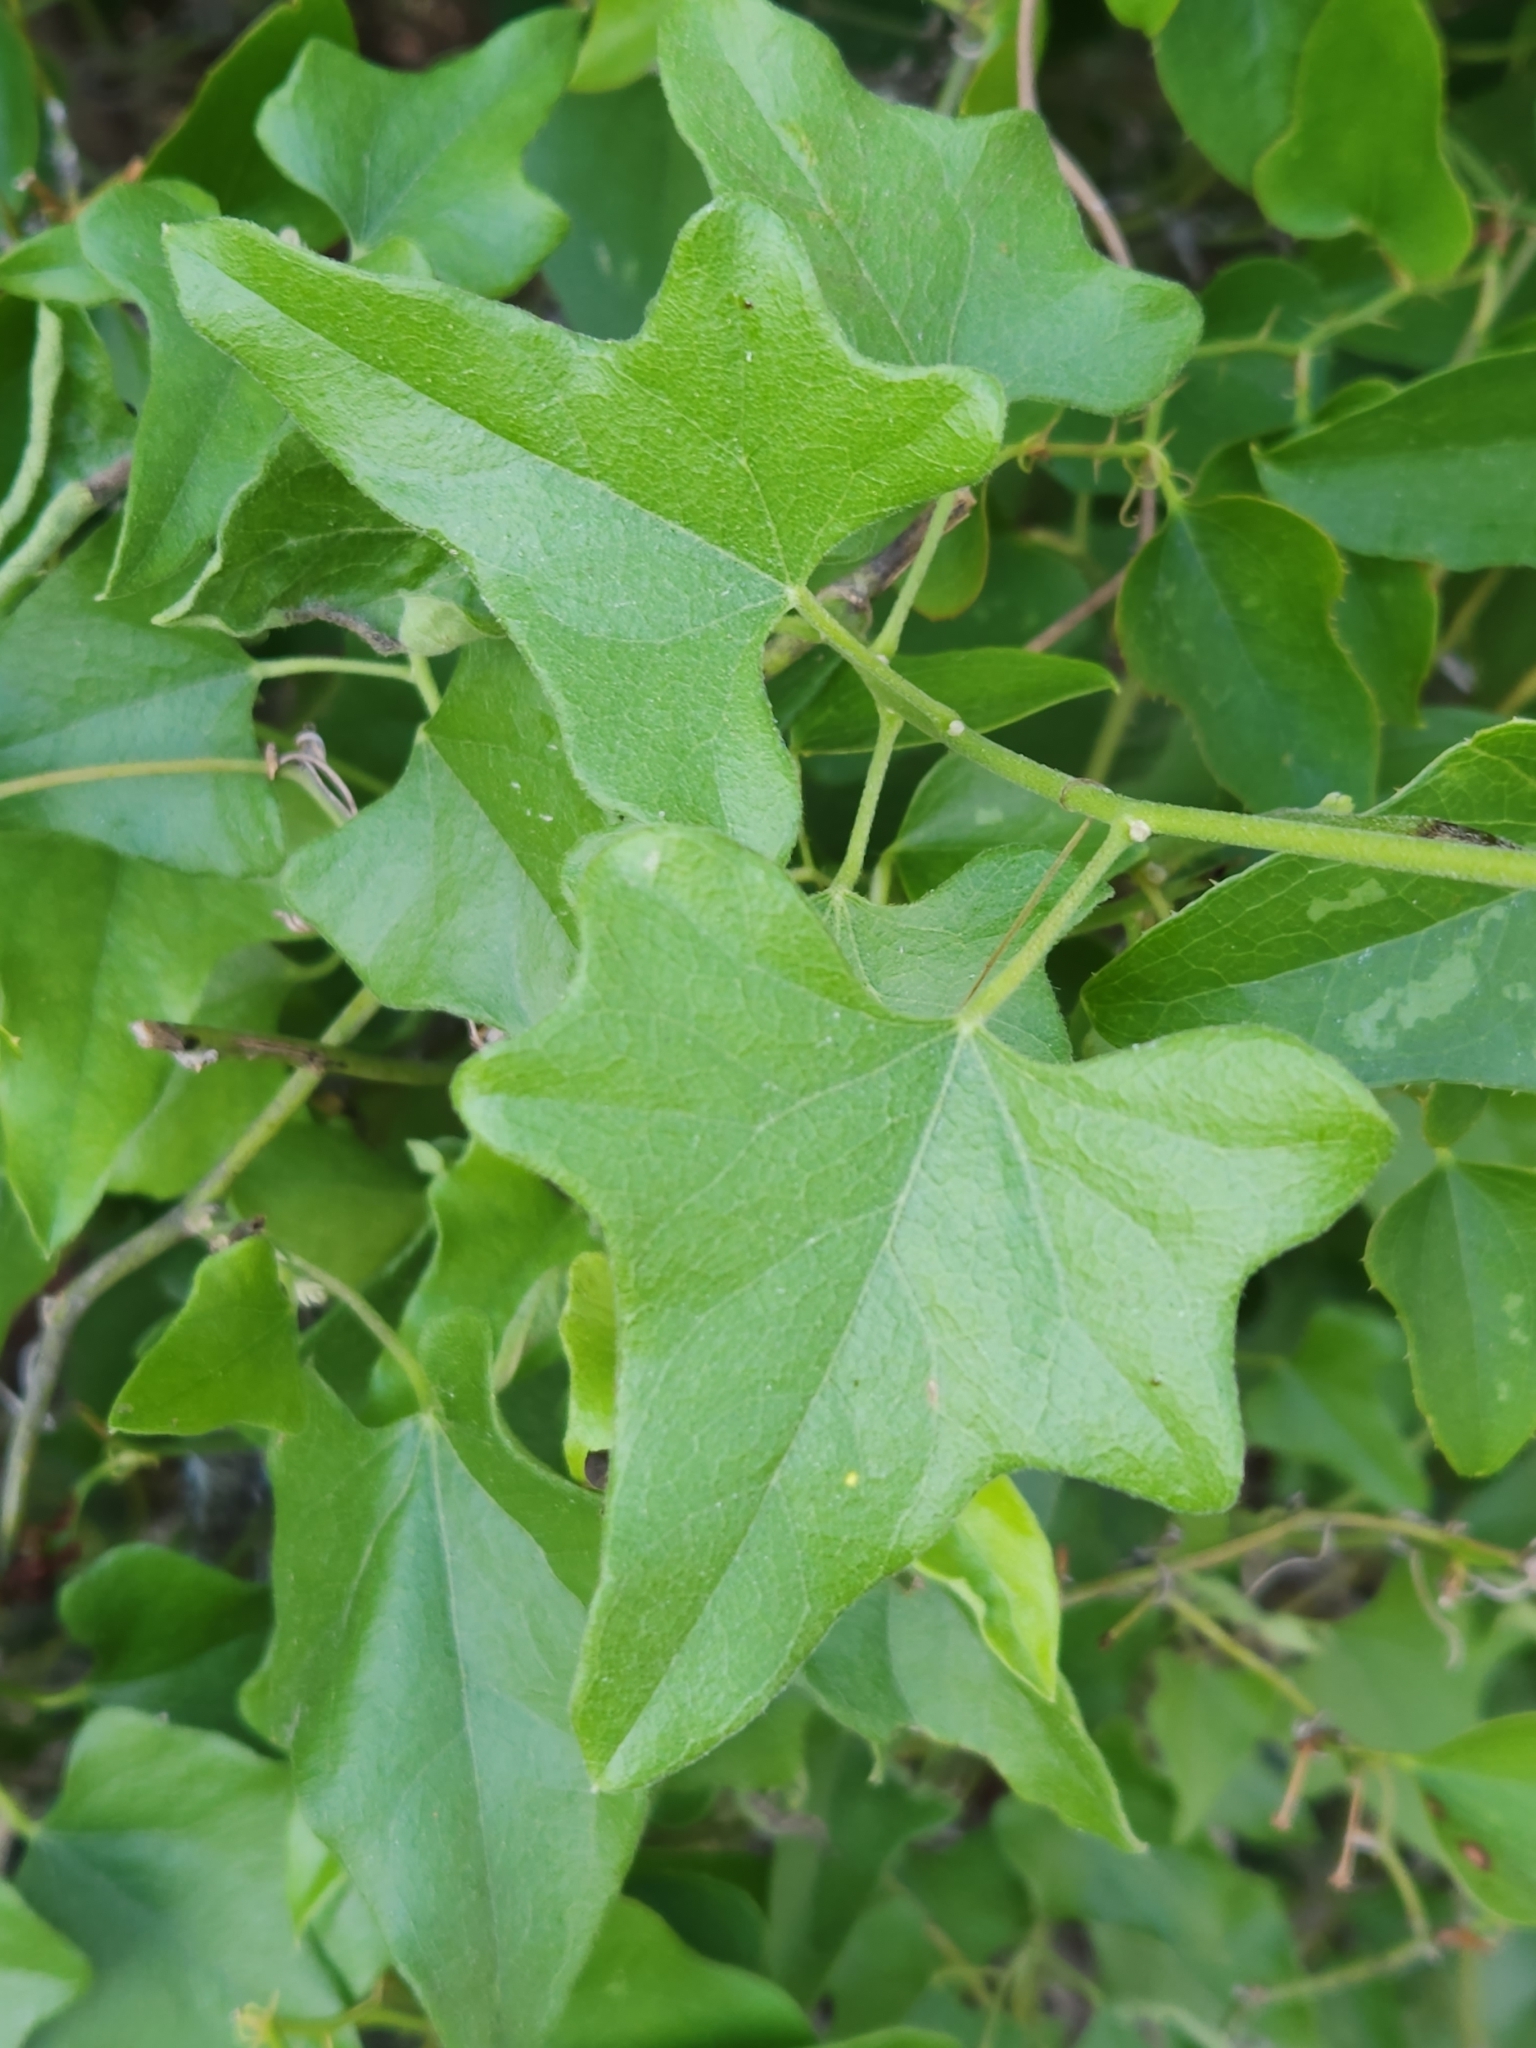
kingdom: Plantae
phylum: Tracheophyta
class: Magnoliopsida
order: Ranunculales
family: Menispermaceae
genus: Cocculus
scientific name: Cocculus carolinus
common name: Carolina moonseed
